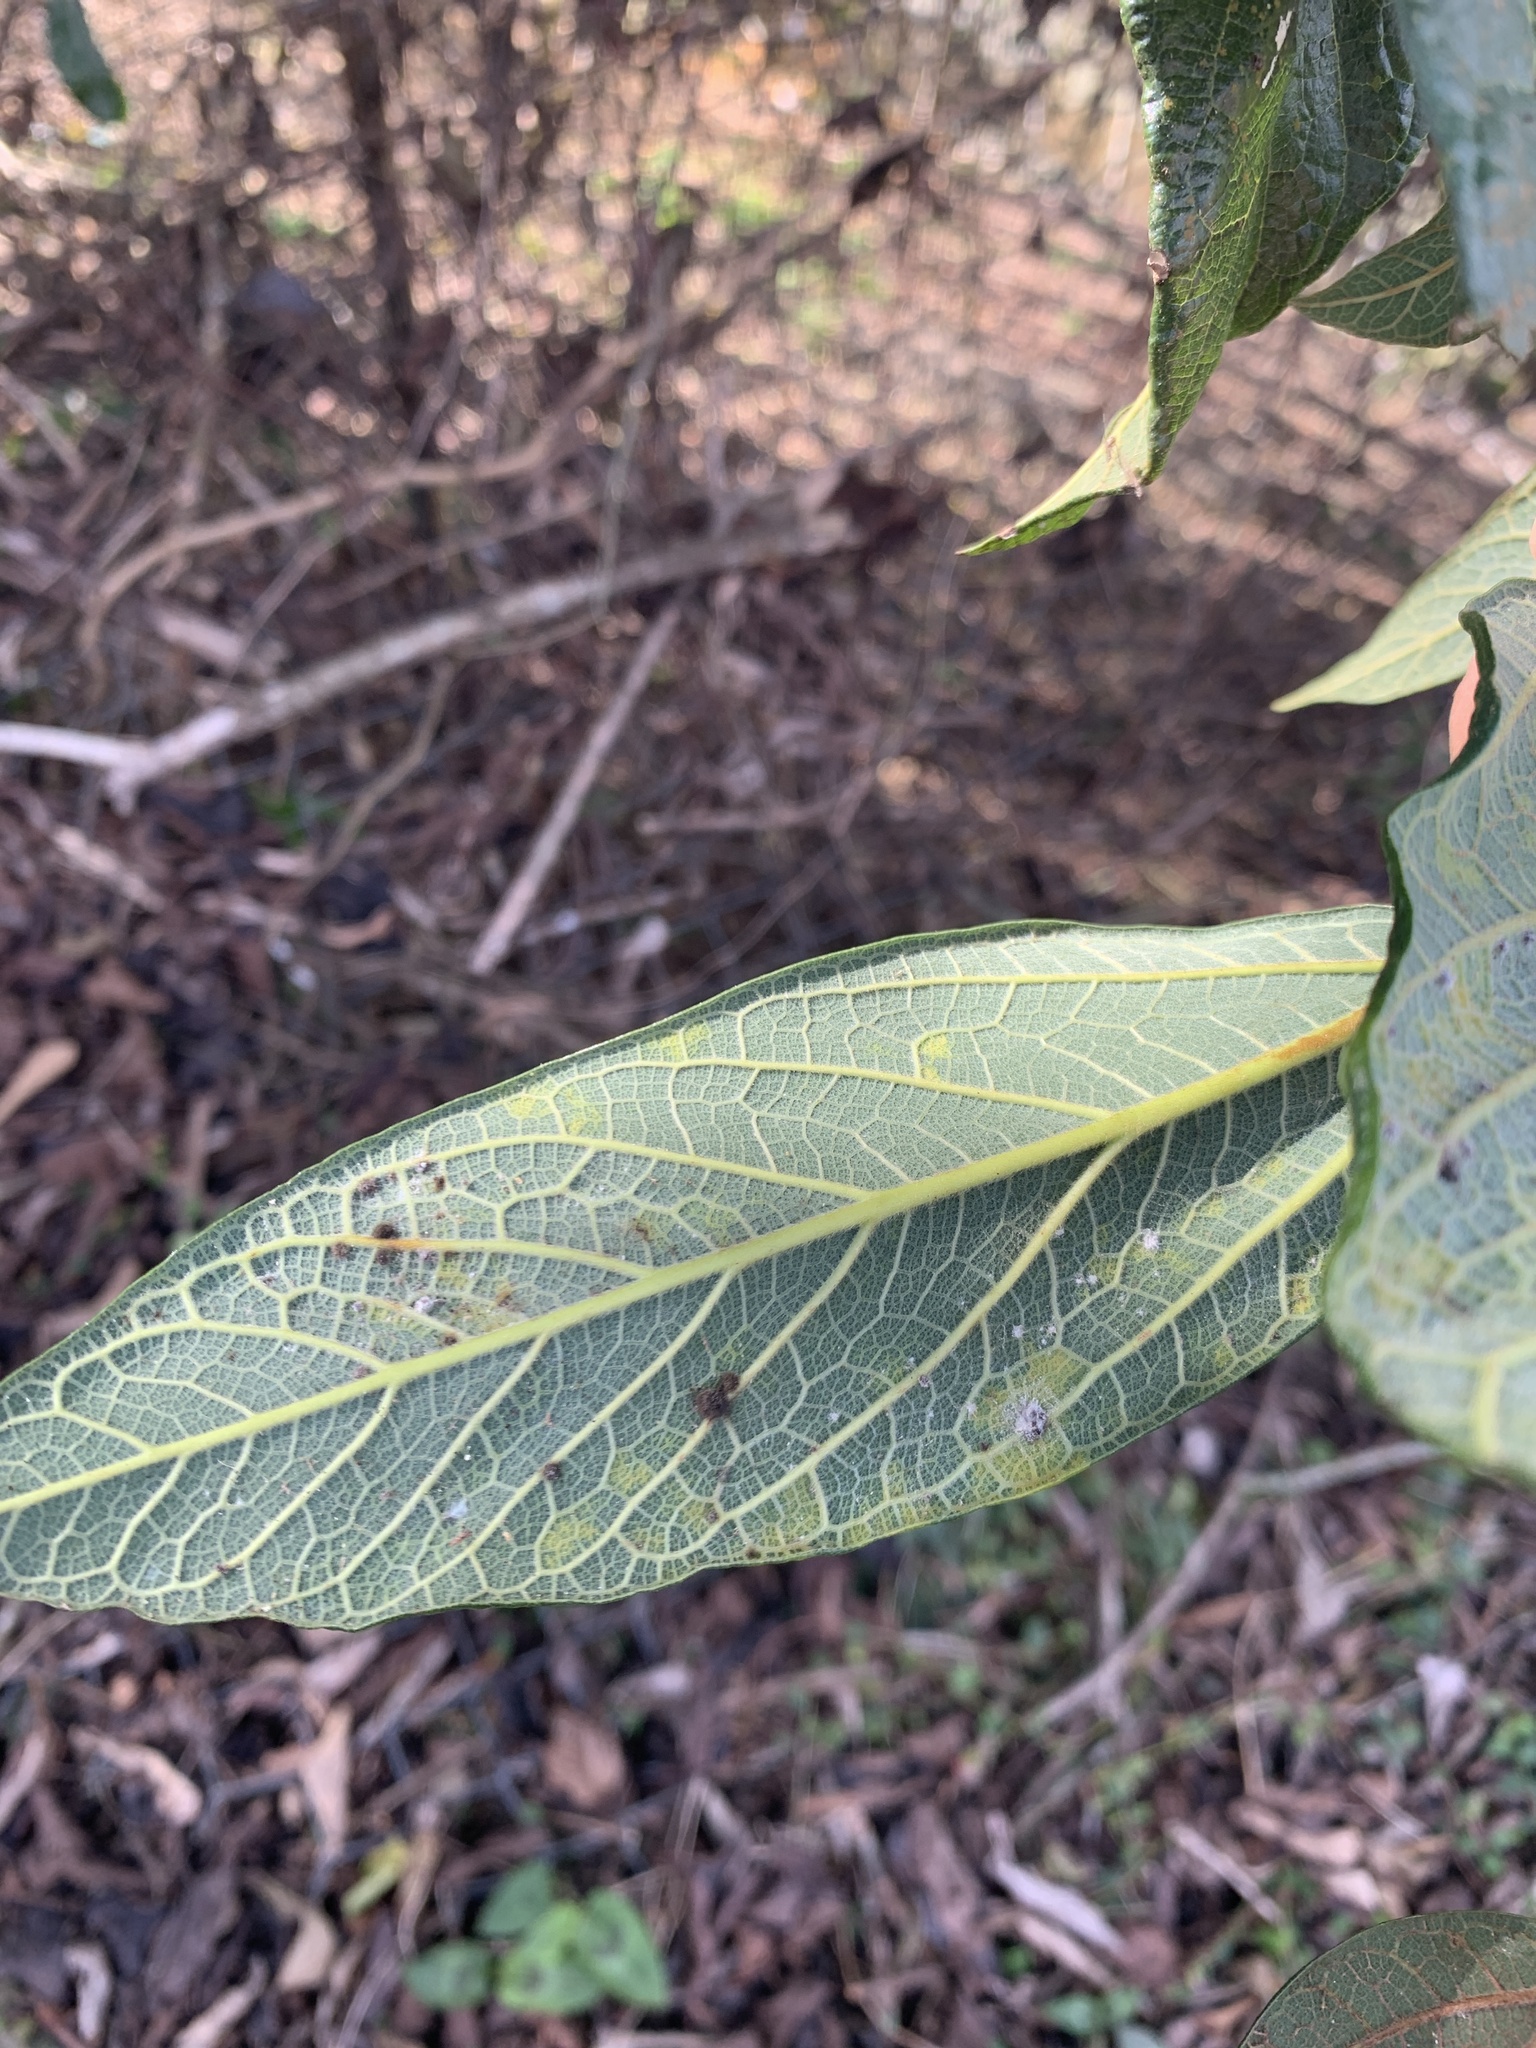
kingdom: Plantae
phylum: Tracheophyta
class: Magnoliopsida
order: Rosales
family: Moraceae
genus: Ficus
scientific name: Ficus pumila
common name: Climbingfig
